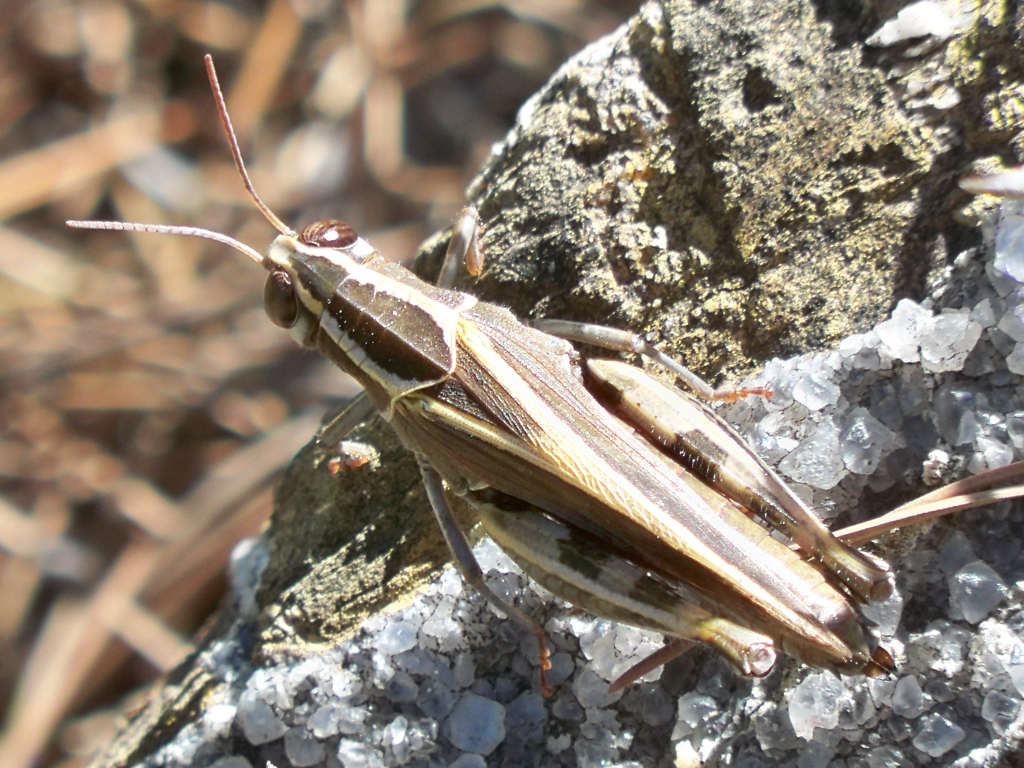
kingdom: Animalia
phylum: Arthropoda
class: Insecta
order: Orthoptera
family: Acrididae
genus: Calliptamus
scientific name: Calliptamus barbarus
